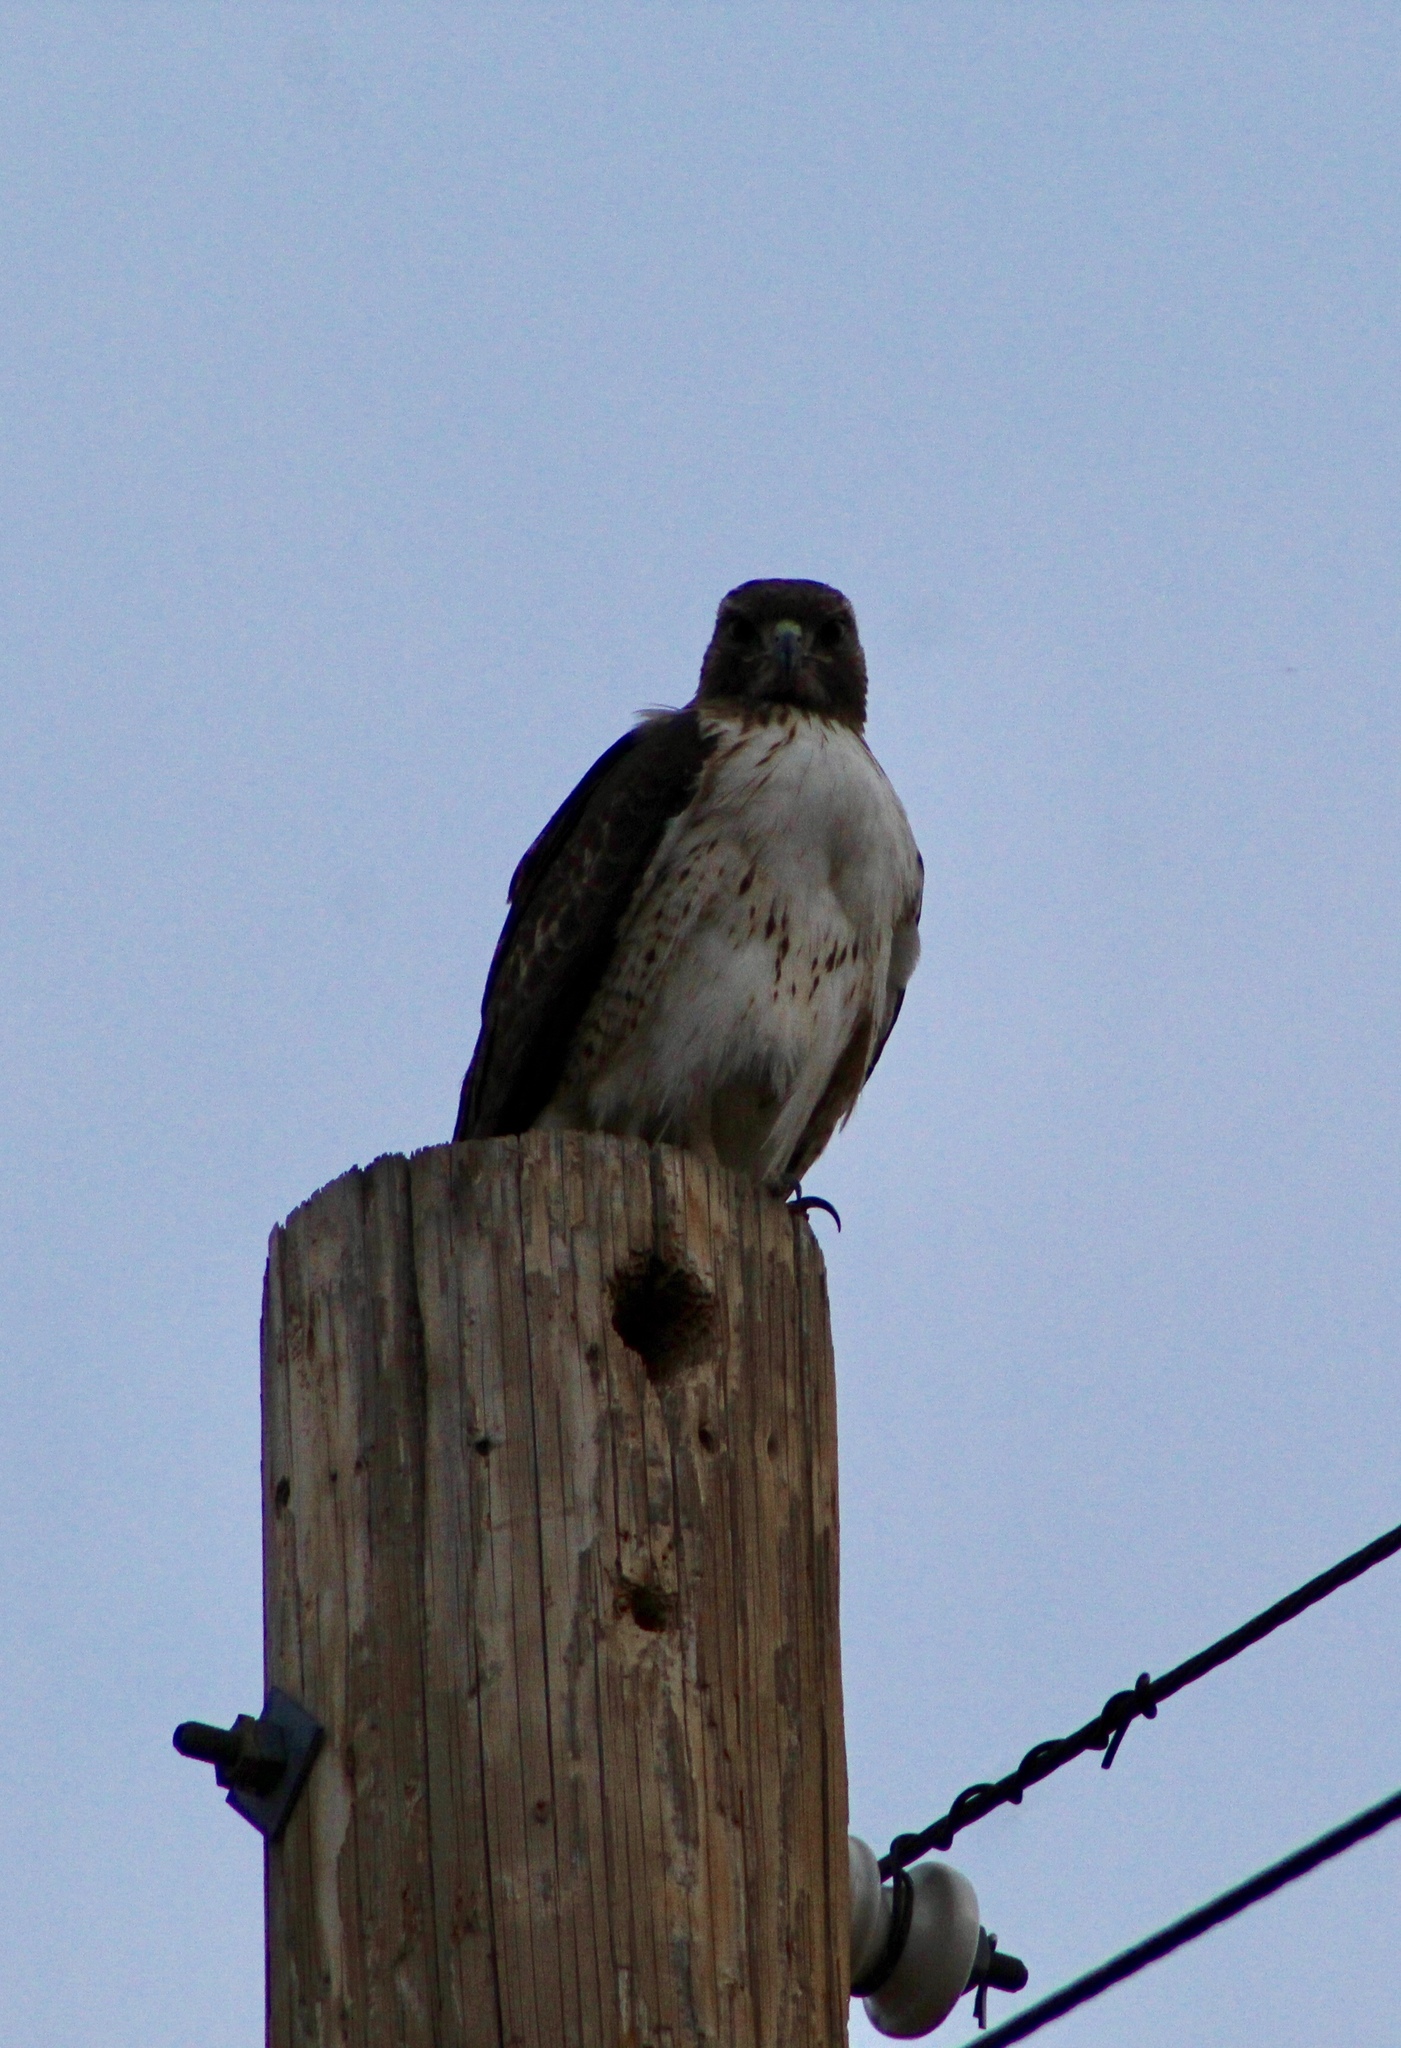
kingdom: Animalia
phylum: Chordata
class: Aves
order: Accipitriformes
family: Accipitridae
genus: Buteo
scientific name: Buteo jamaicensis
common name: Red-tailed hawk
